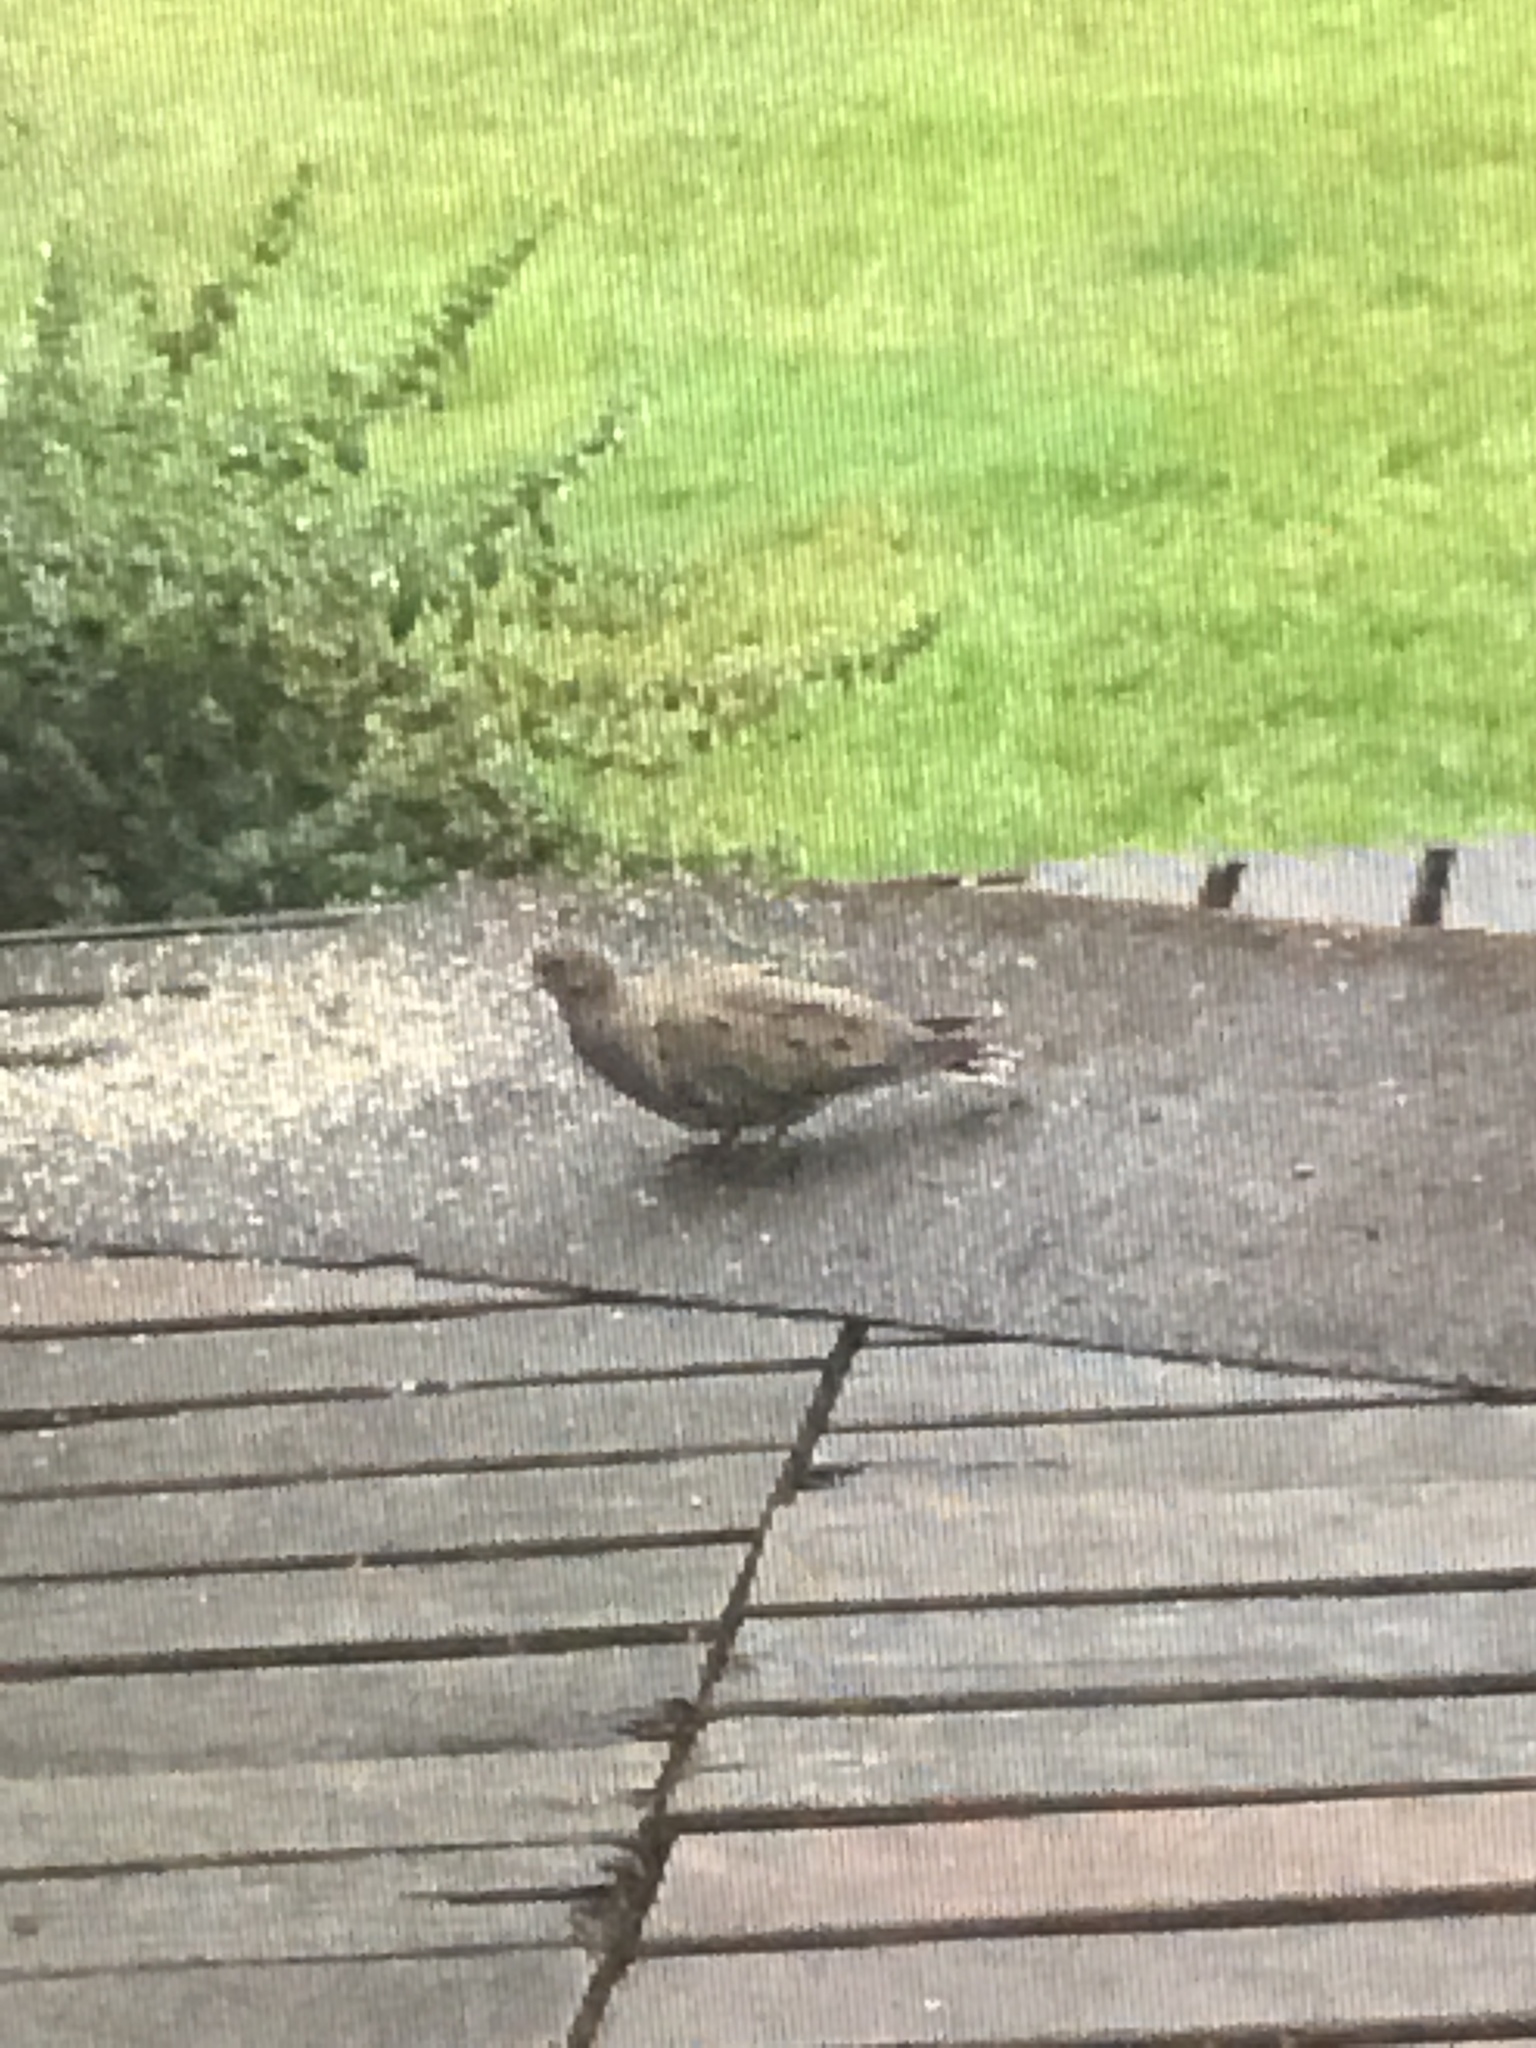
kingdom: Animalia
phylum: Chordata
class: Aves
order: Columbiformes
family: Columbidae
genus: Zenaida
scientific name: Zenaida macroura
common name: Mourning dove
